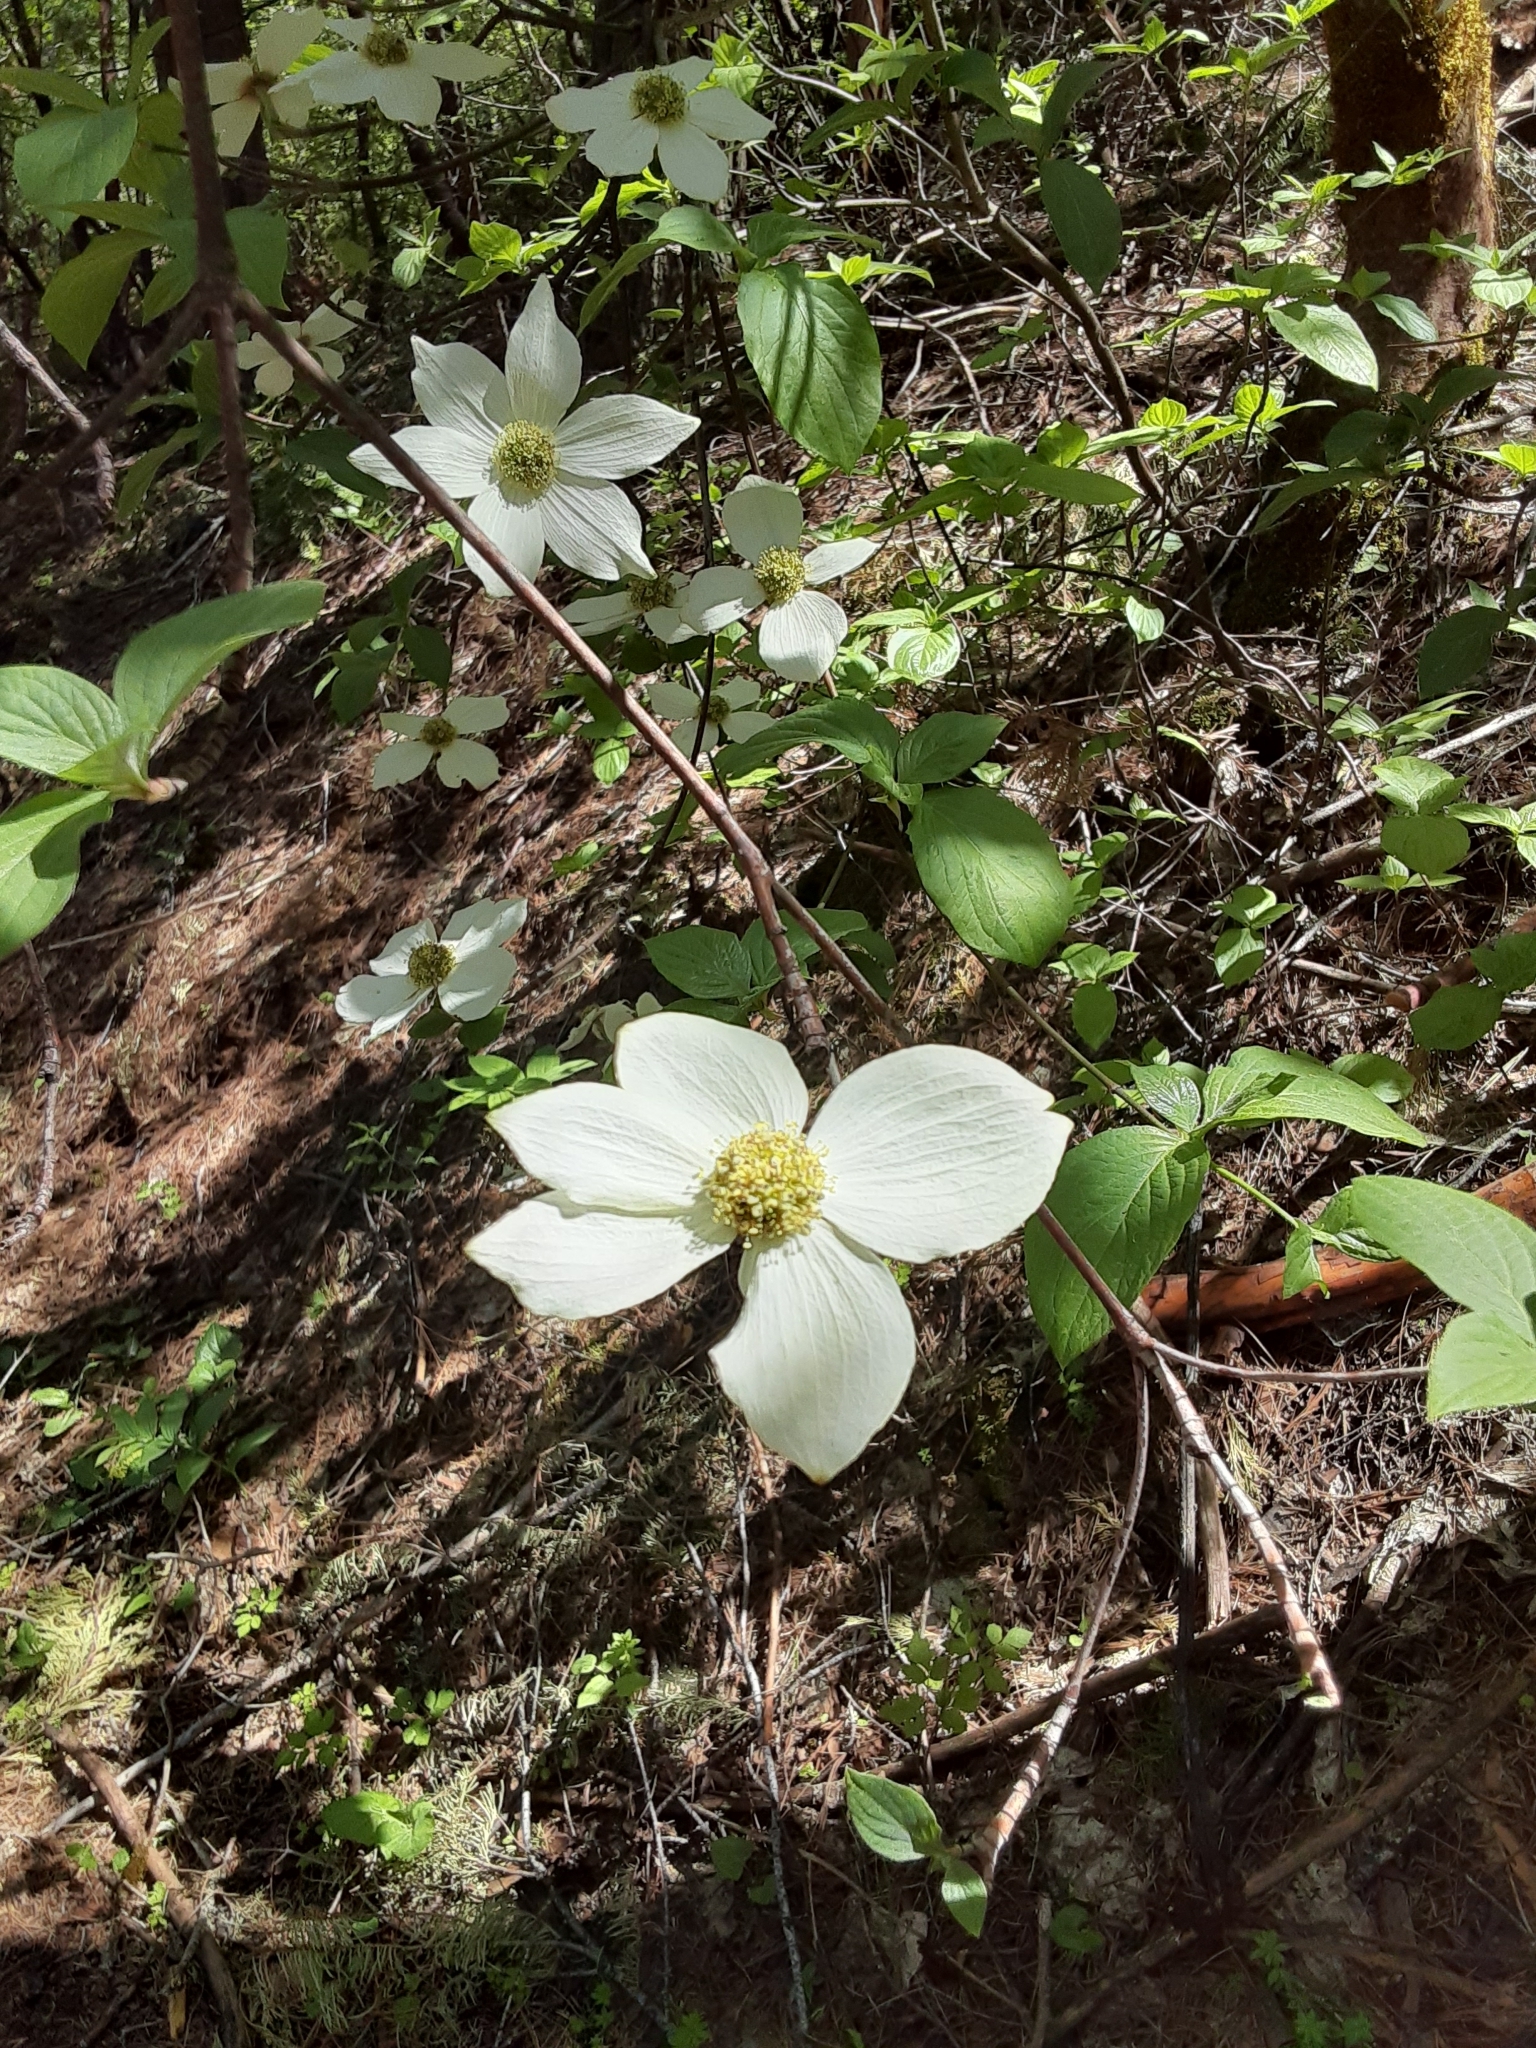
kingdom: Plantae
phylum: Tracheophyta
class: Magnoliopsida
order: Cornales
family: Cornaceae
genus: Cornus
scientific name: Cornus nuttallii
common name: Pacific dogwood
